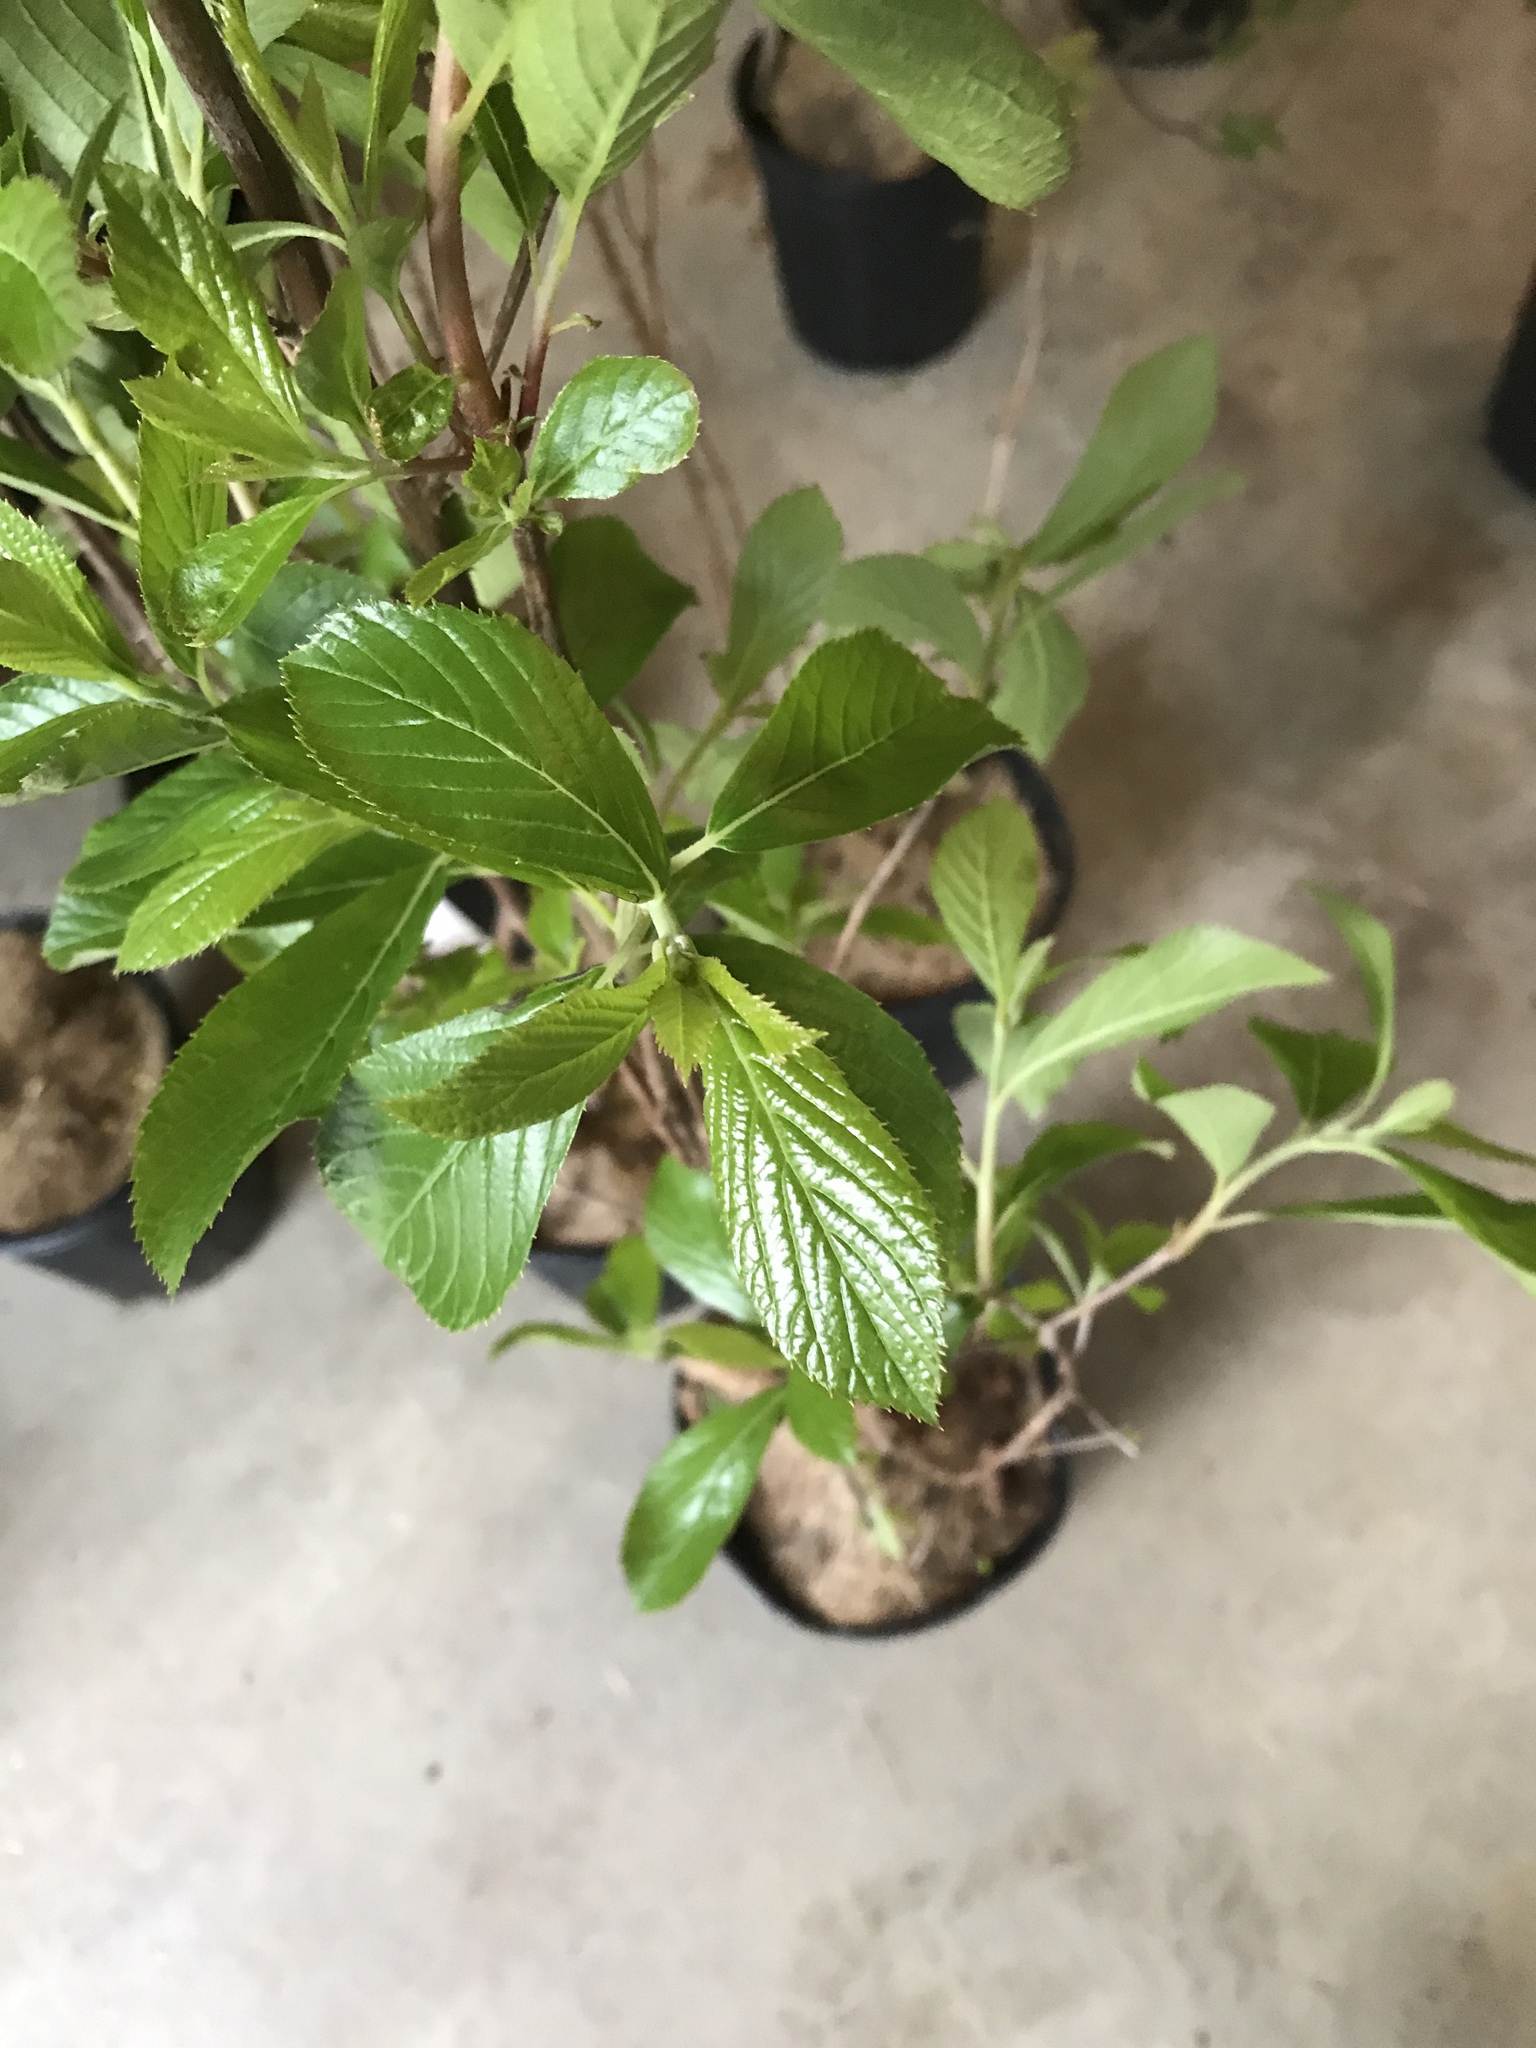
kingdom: Plantae
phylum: Tracheophyta
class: Magnoliopsida
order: Ericales
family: Clethraceae
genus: Clethra
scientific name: Clethra alnifolia
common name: Sweet pepperbush
